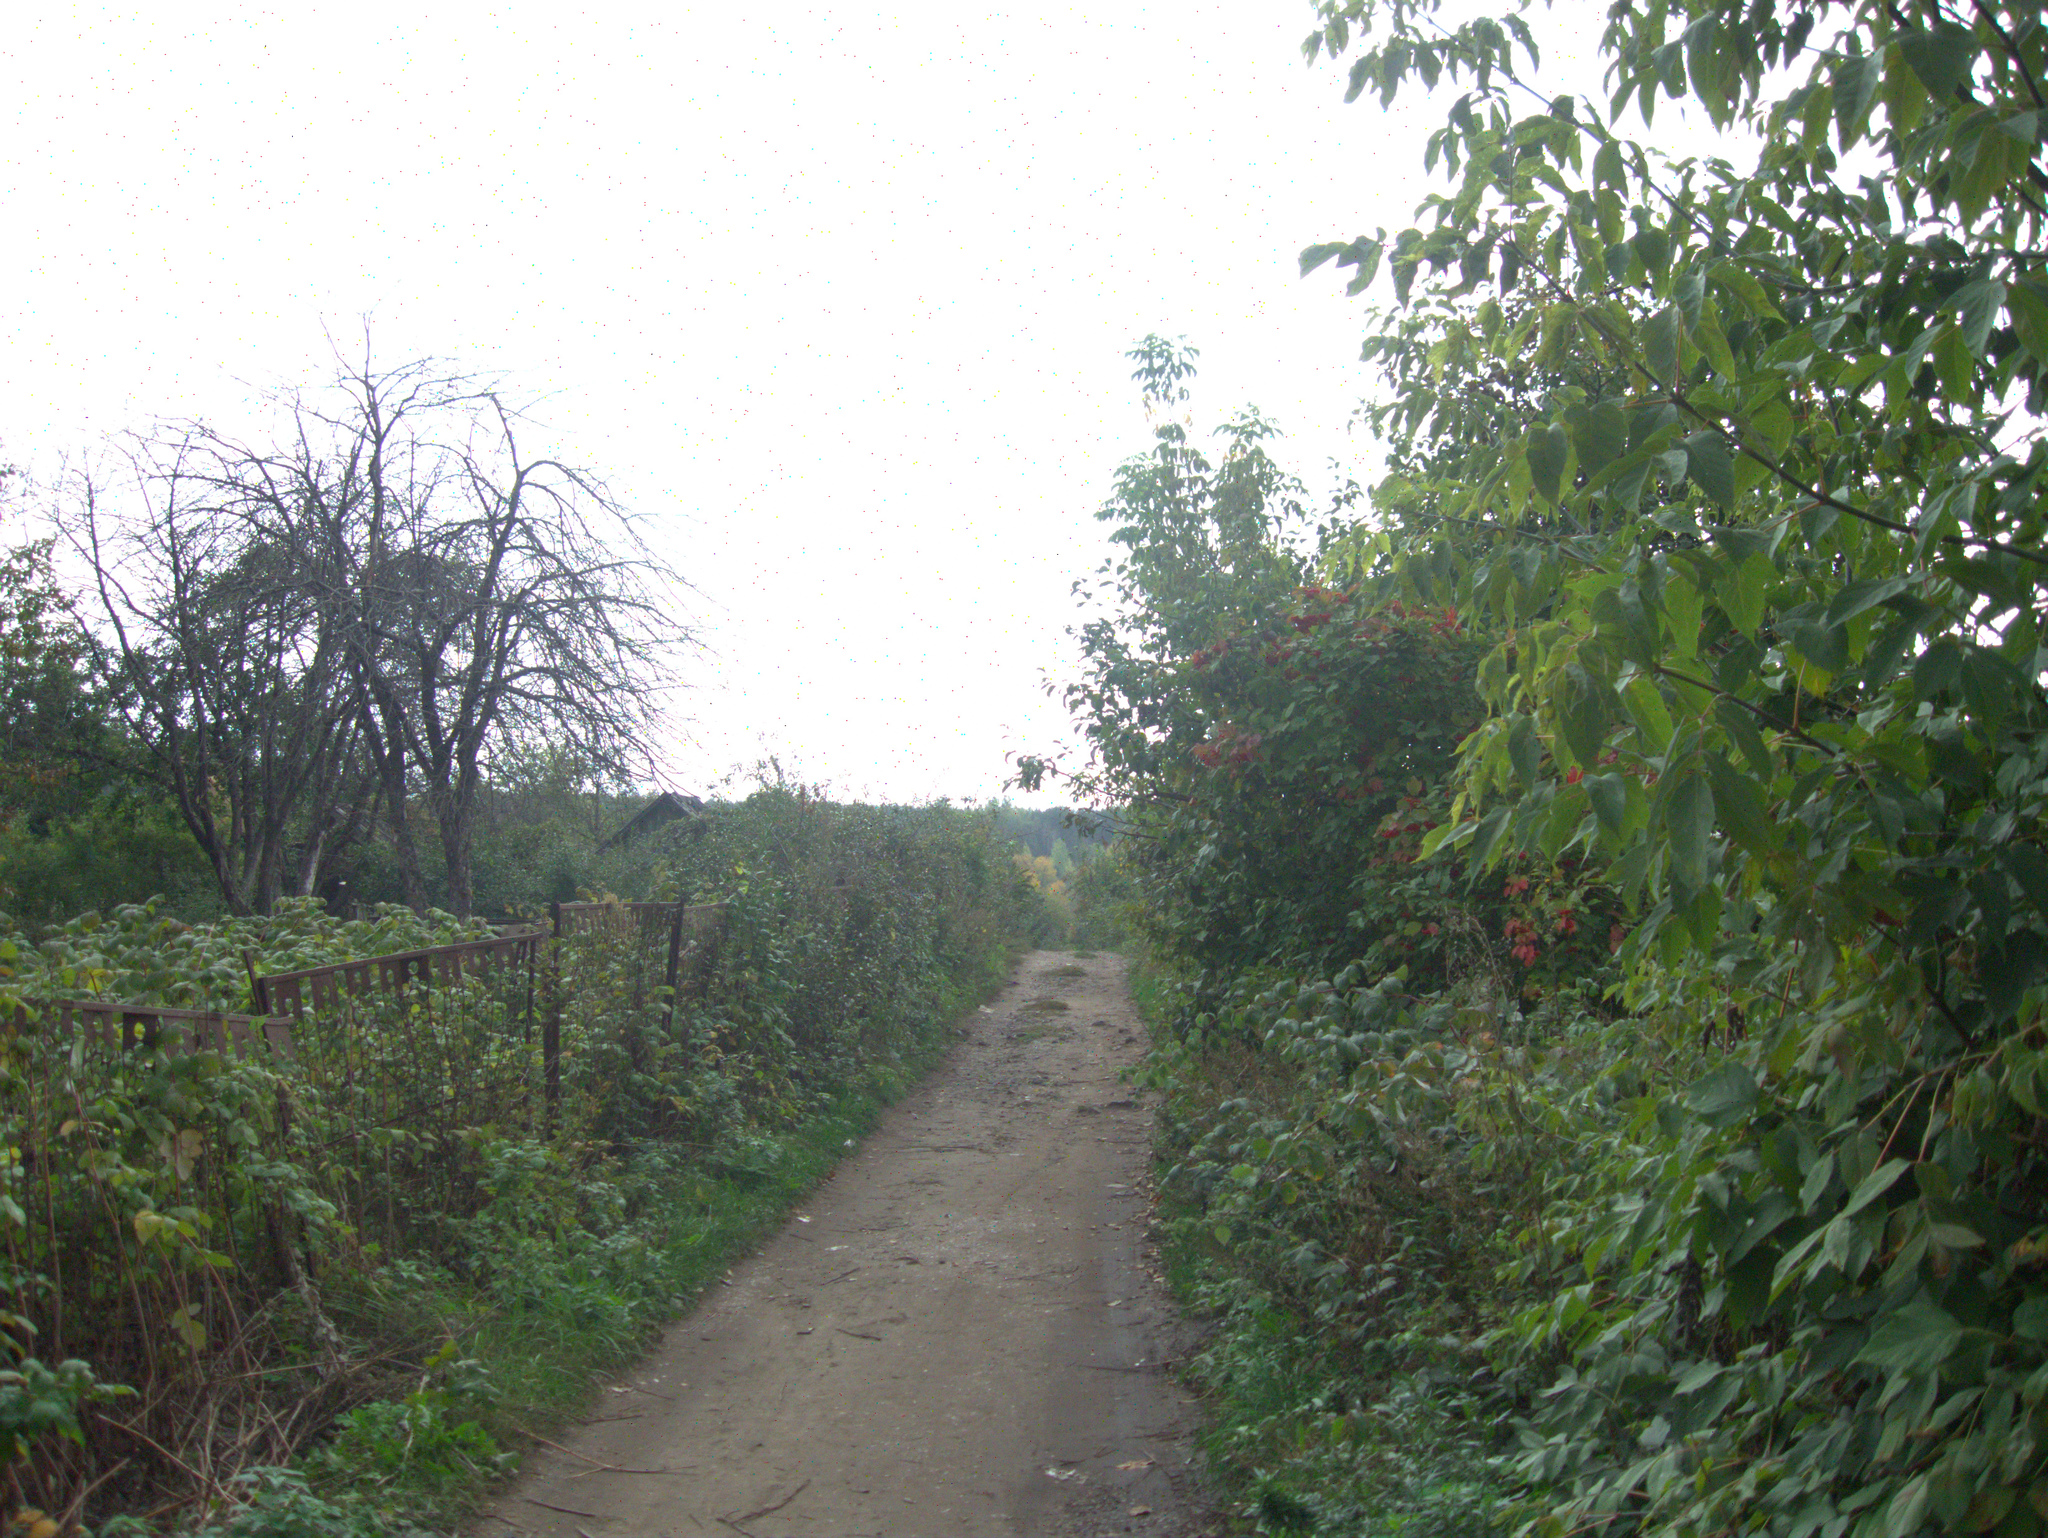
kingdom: Plantae
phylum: Tracheophyta
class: Magnoliopsida
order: Sapindales
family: Sapindaceae
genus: Acer
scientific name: Acer negundo
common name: Ashleaf maple
